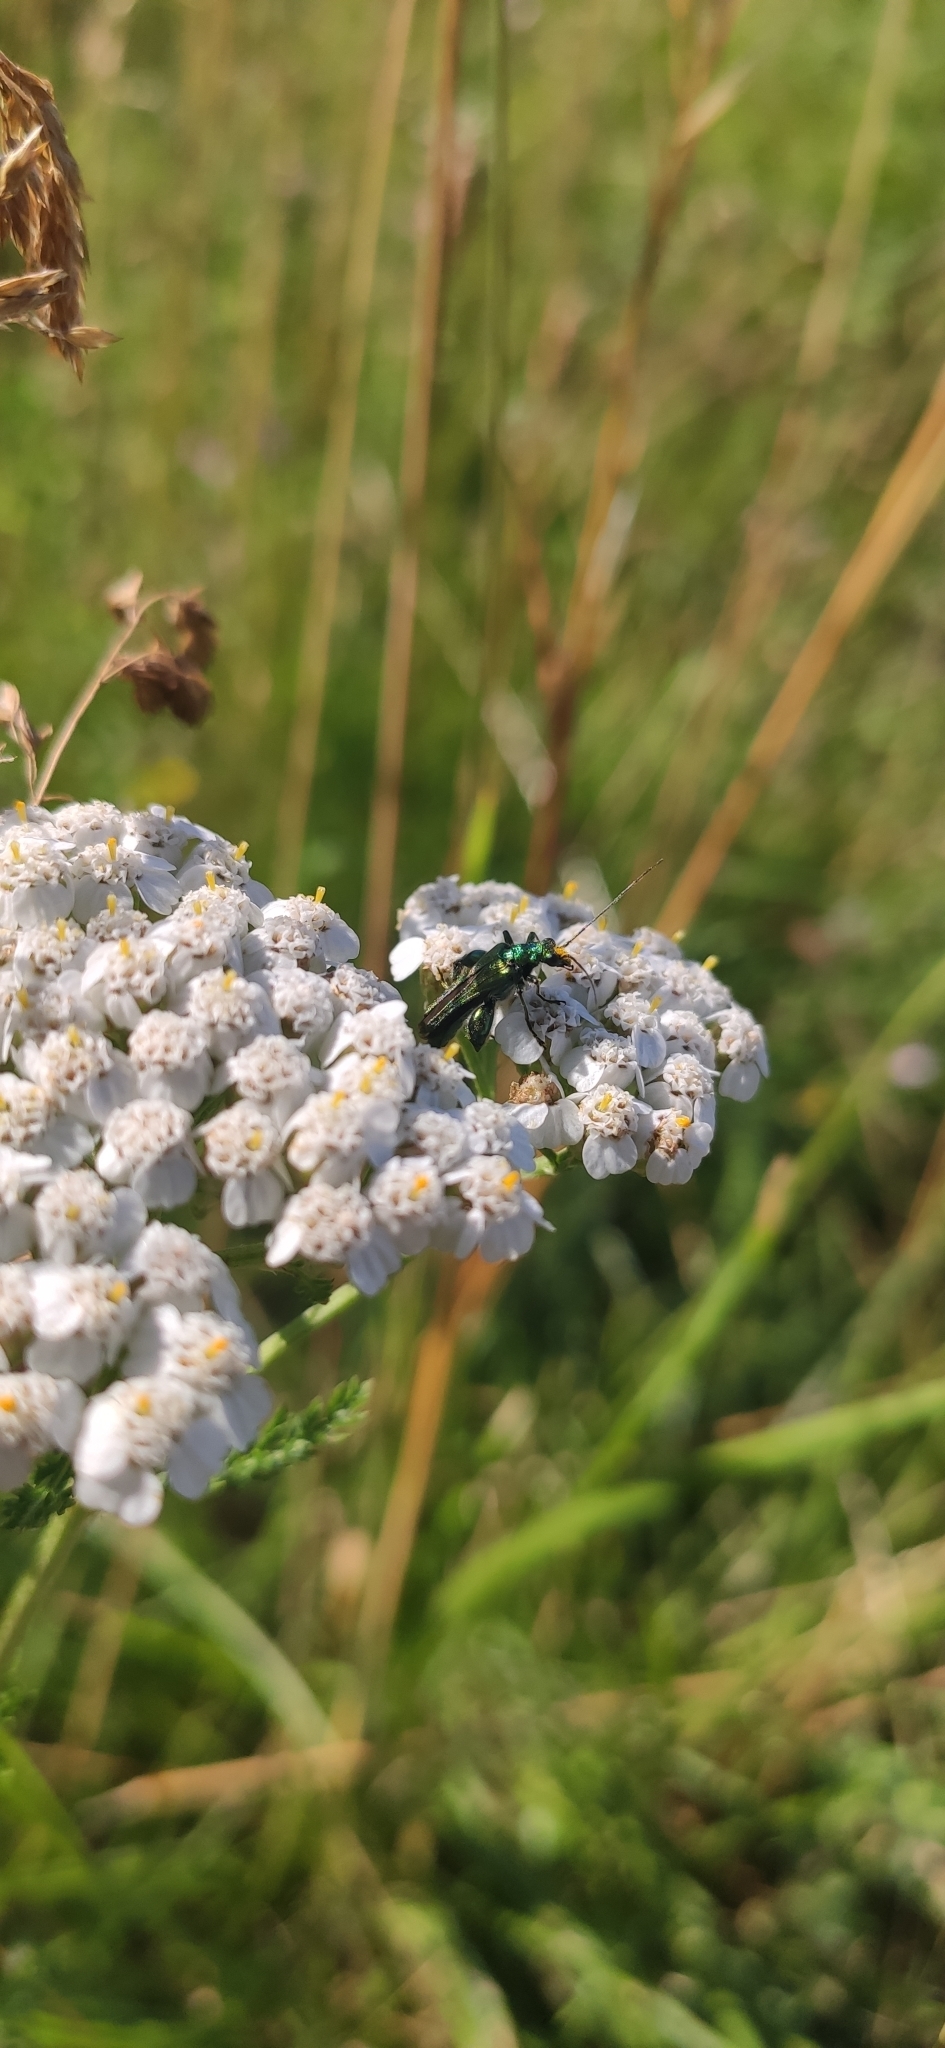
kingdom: Animalia
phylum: Arthropoda
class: Insecta
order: Coleoptera
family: Oedemeridae
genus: Oedemera
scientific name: Oedemera nobilis
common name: Swollen-thighed beetle
